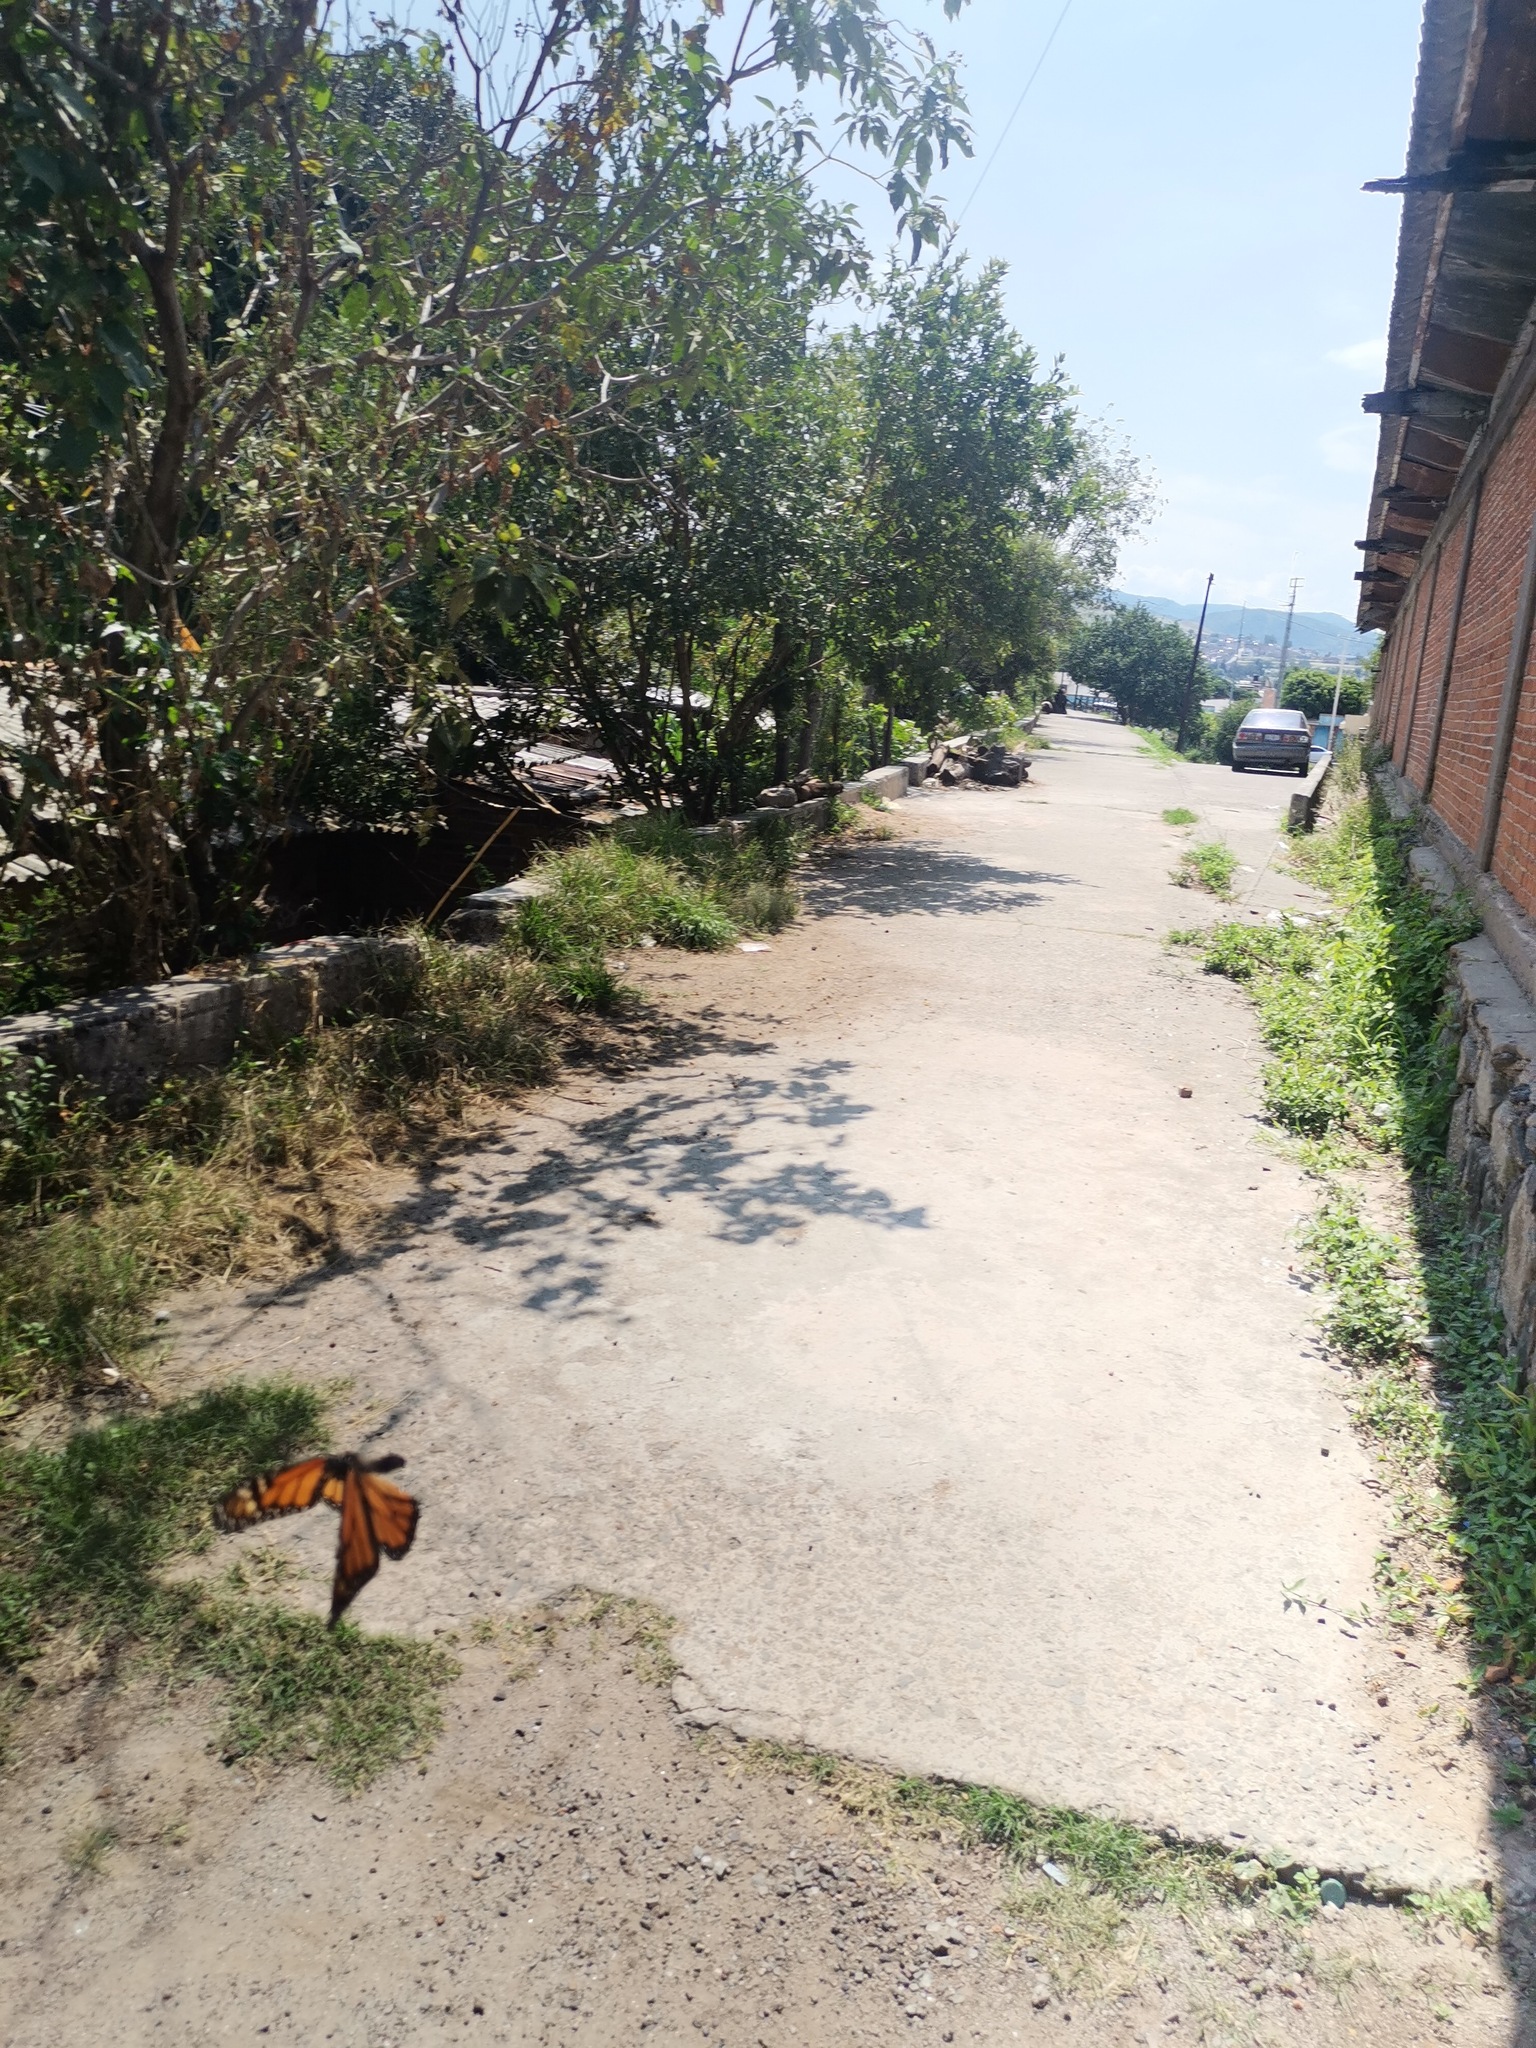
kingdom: Animalia
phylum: Arthropoda
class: Insecta
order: Lepidoptera
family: Nymphalidae
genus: Danaus
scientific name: Danaus plexippus
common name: Monarch
